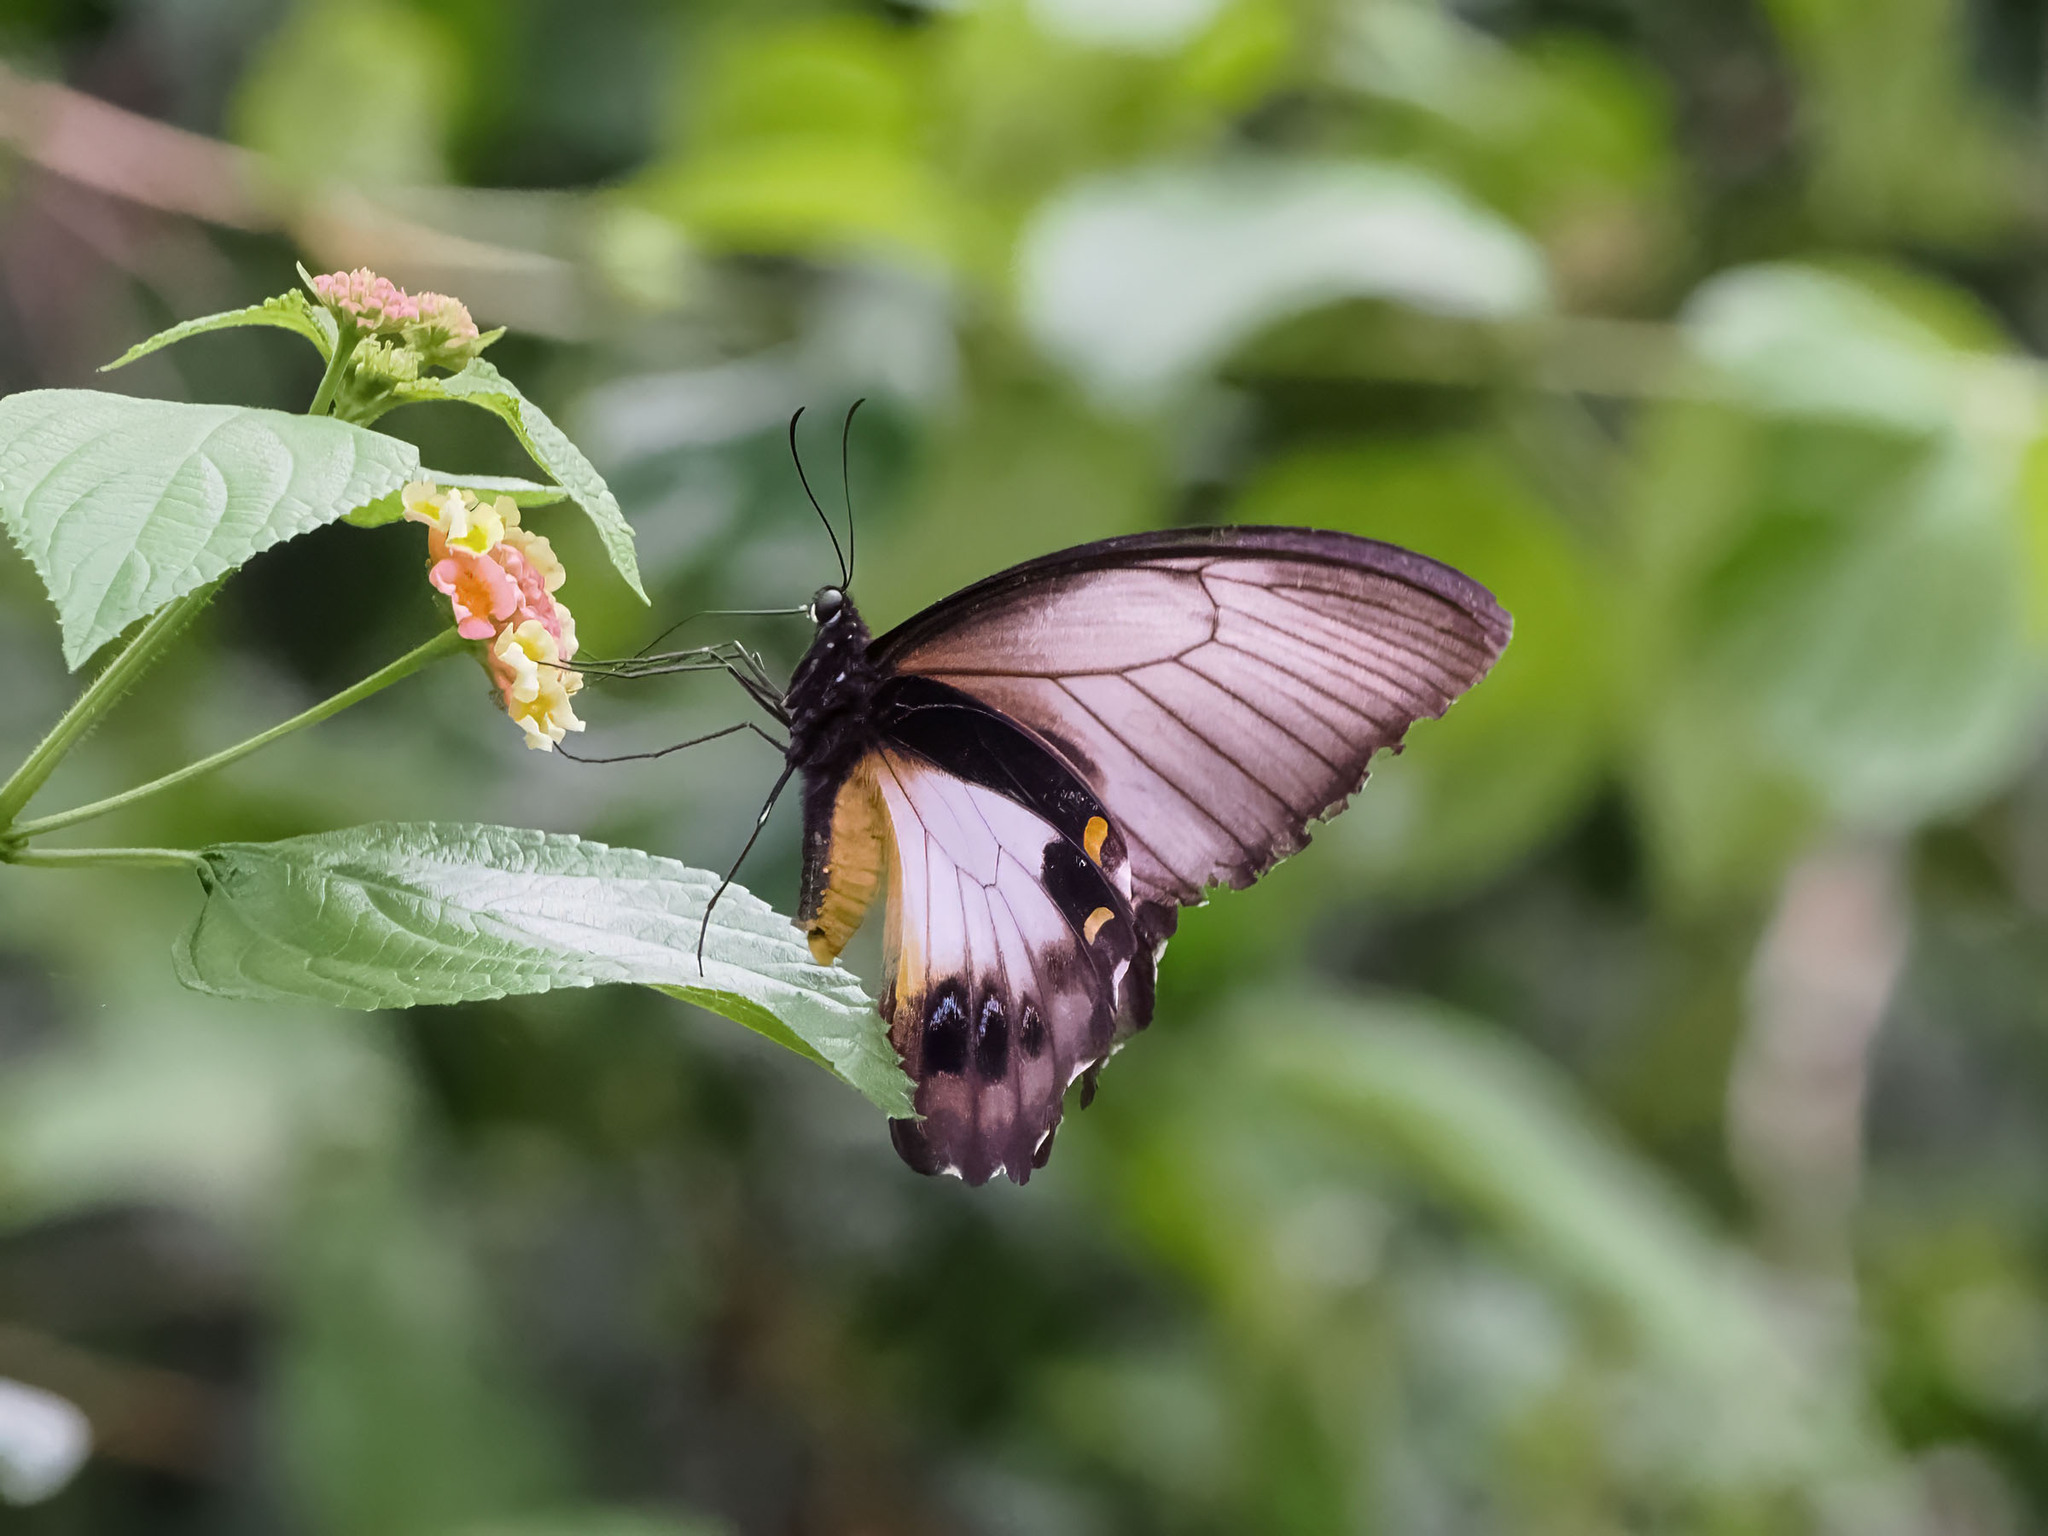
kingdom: Animalia
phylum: Arthropoda
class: Insecta
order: Lepidoptera
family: Papilionidae
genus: Papilio
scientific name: Papilio aegeus
